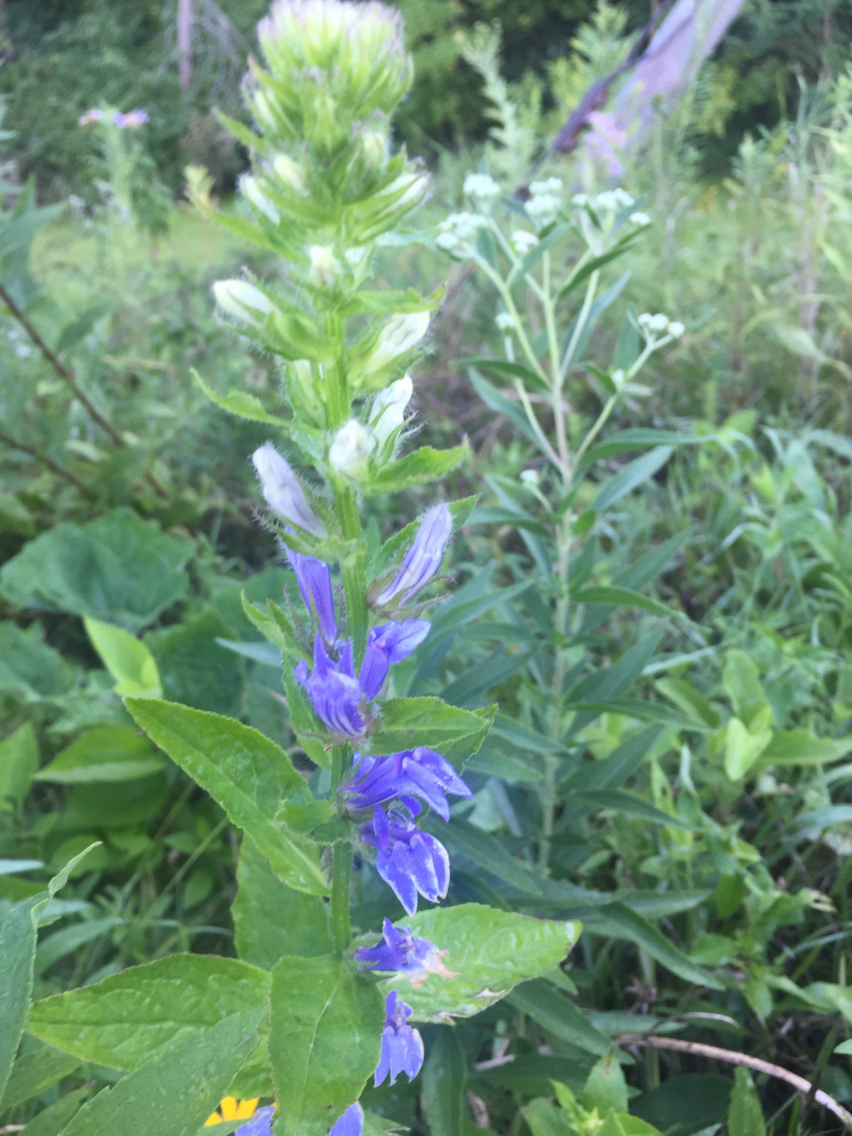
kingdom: Plantae
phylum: Tracheophyta
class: Magnoliopsida
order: Asterales
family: Campanulaceae
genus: Lobelia
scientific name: Lobelia siphilitica
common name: Great lobelia
